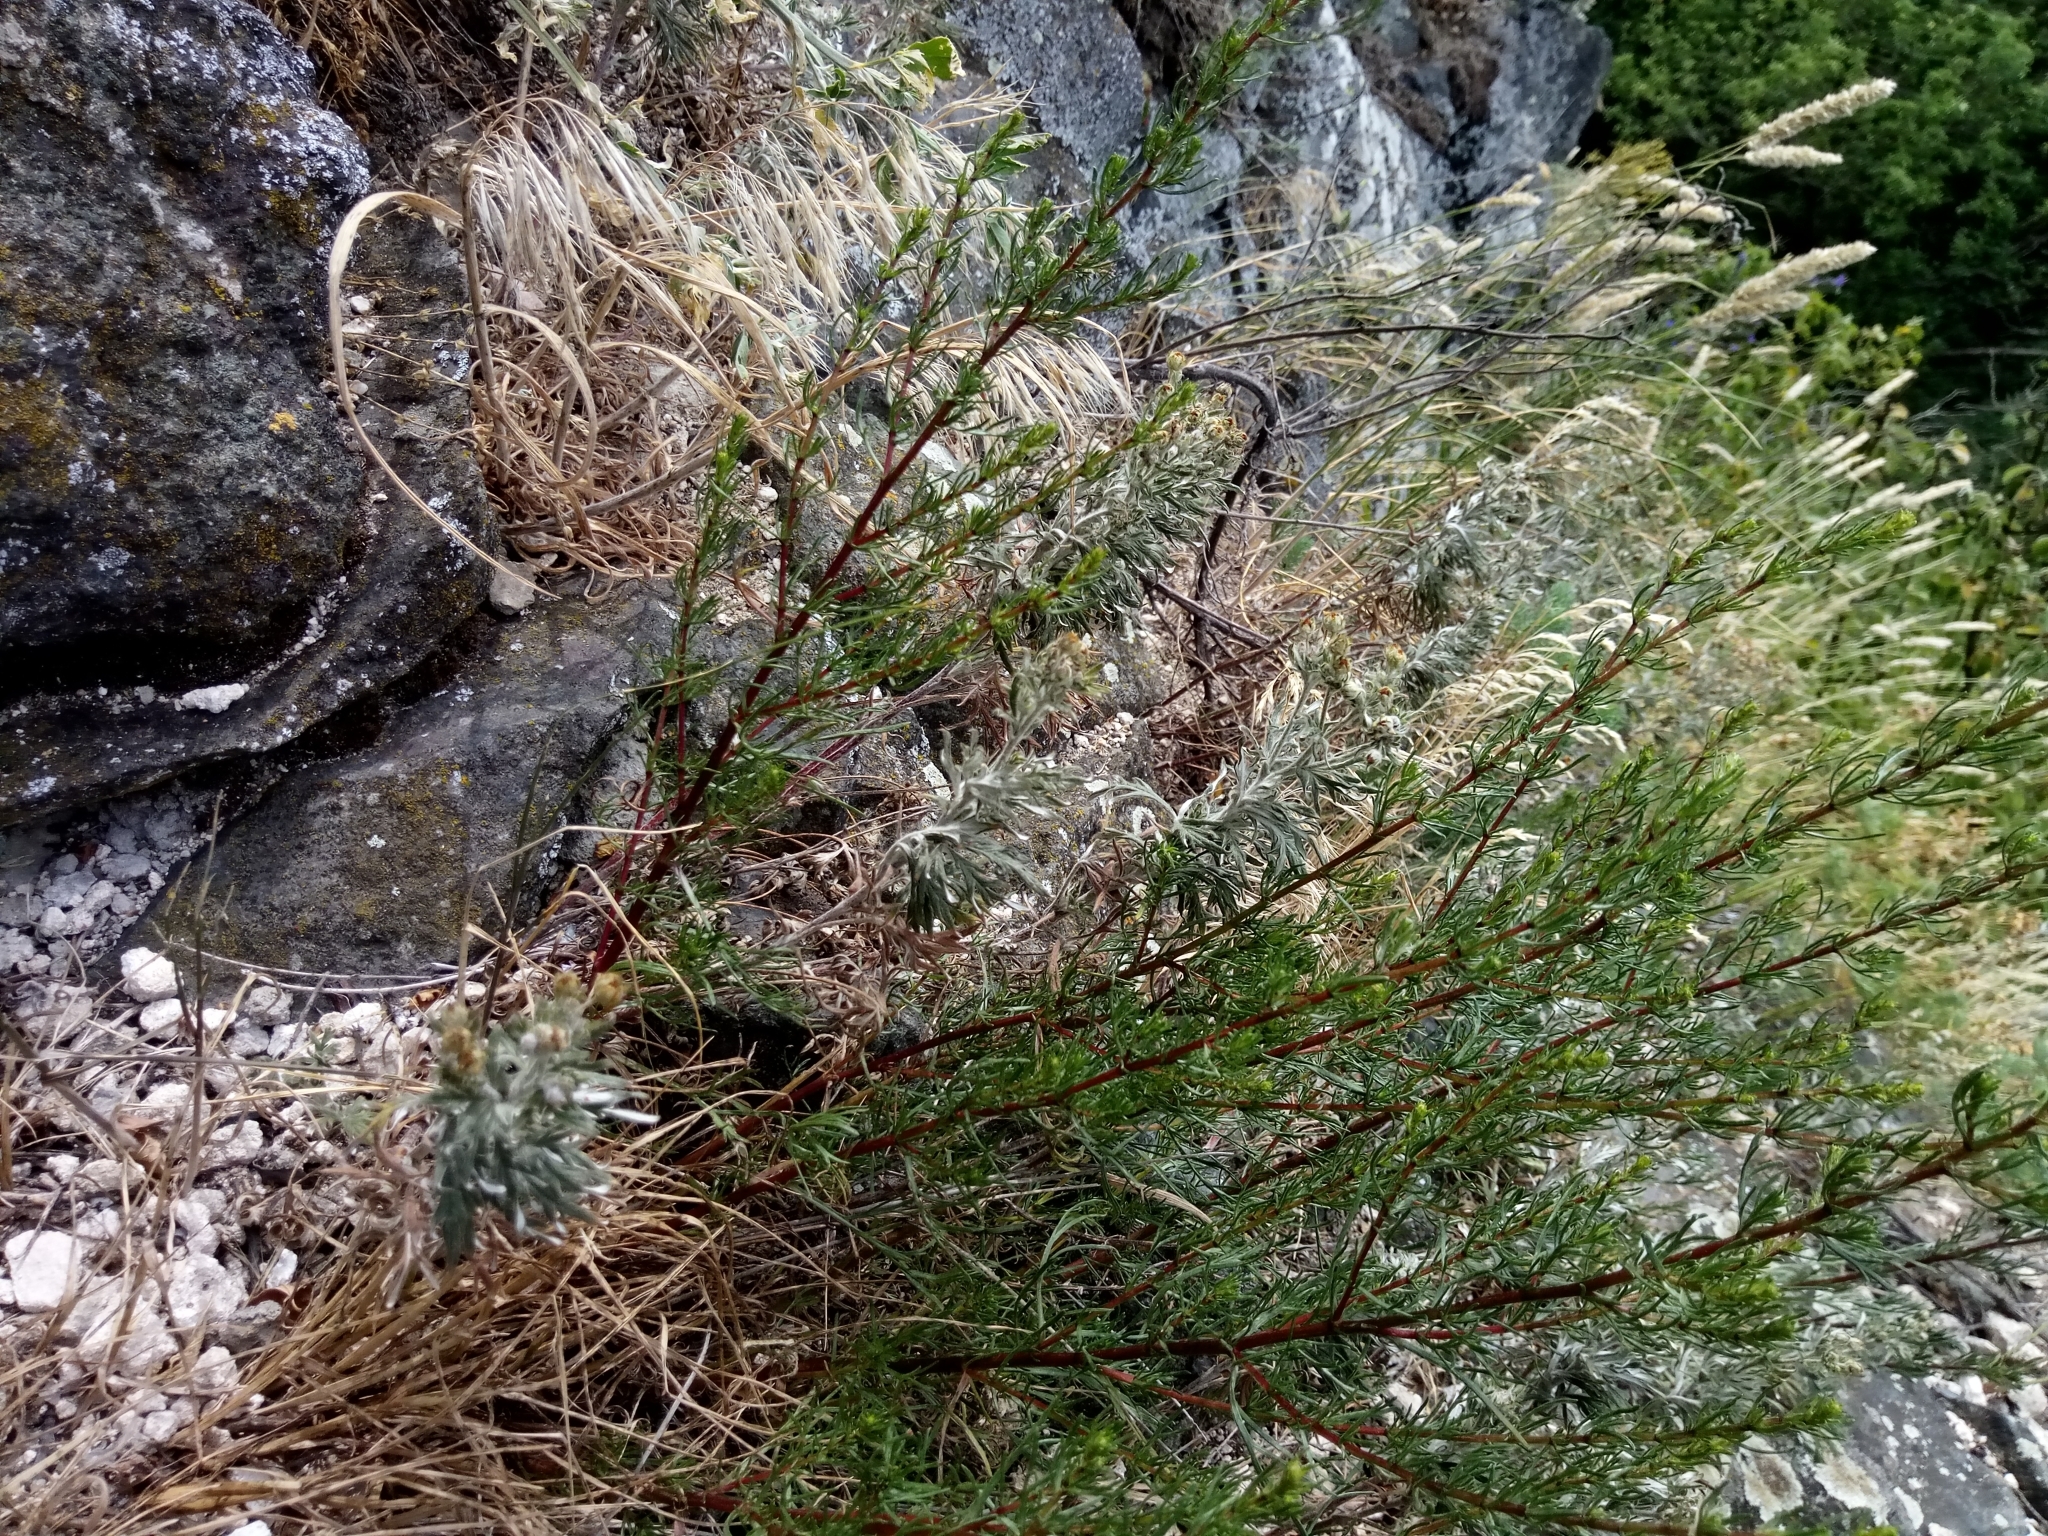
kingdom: Plantae
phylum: Tracheophyta
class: Magnoliopsida
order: Asterales
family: Asteraceae
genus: Artemisia
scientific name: Artemisia campestris
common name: Field wormwood
